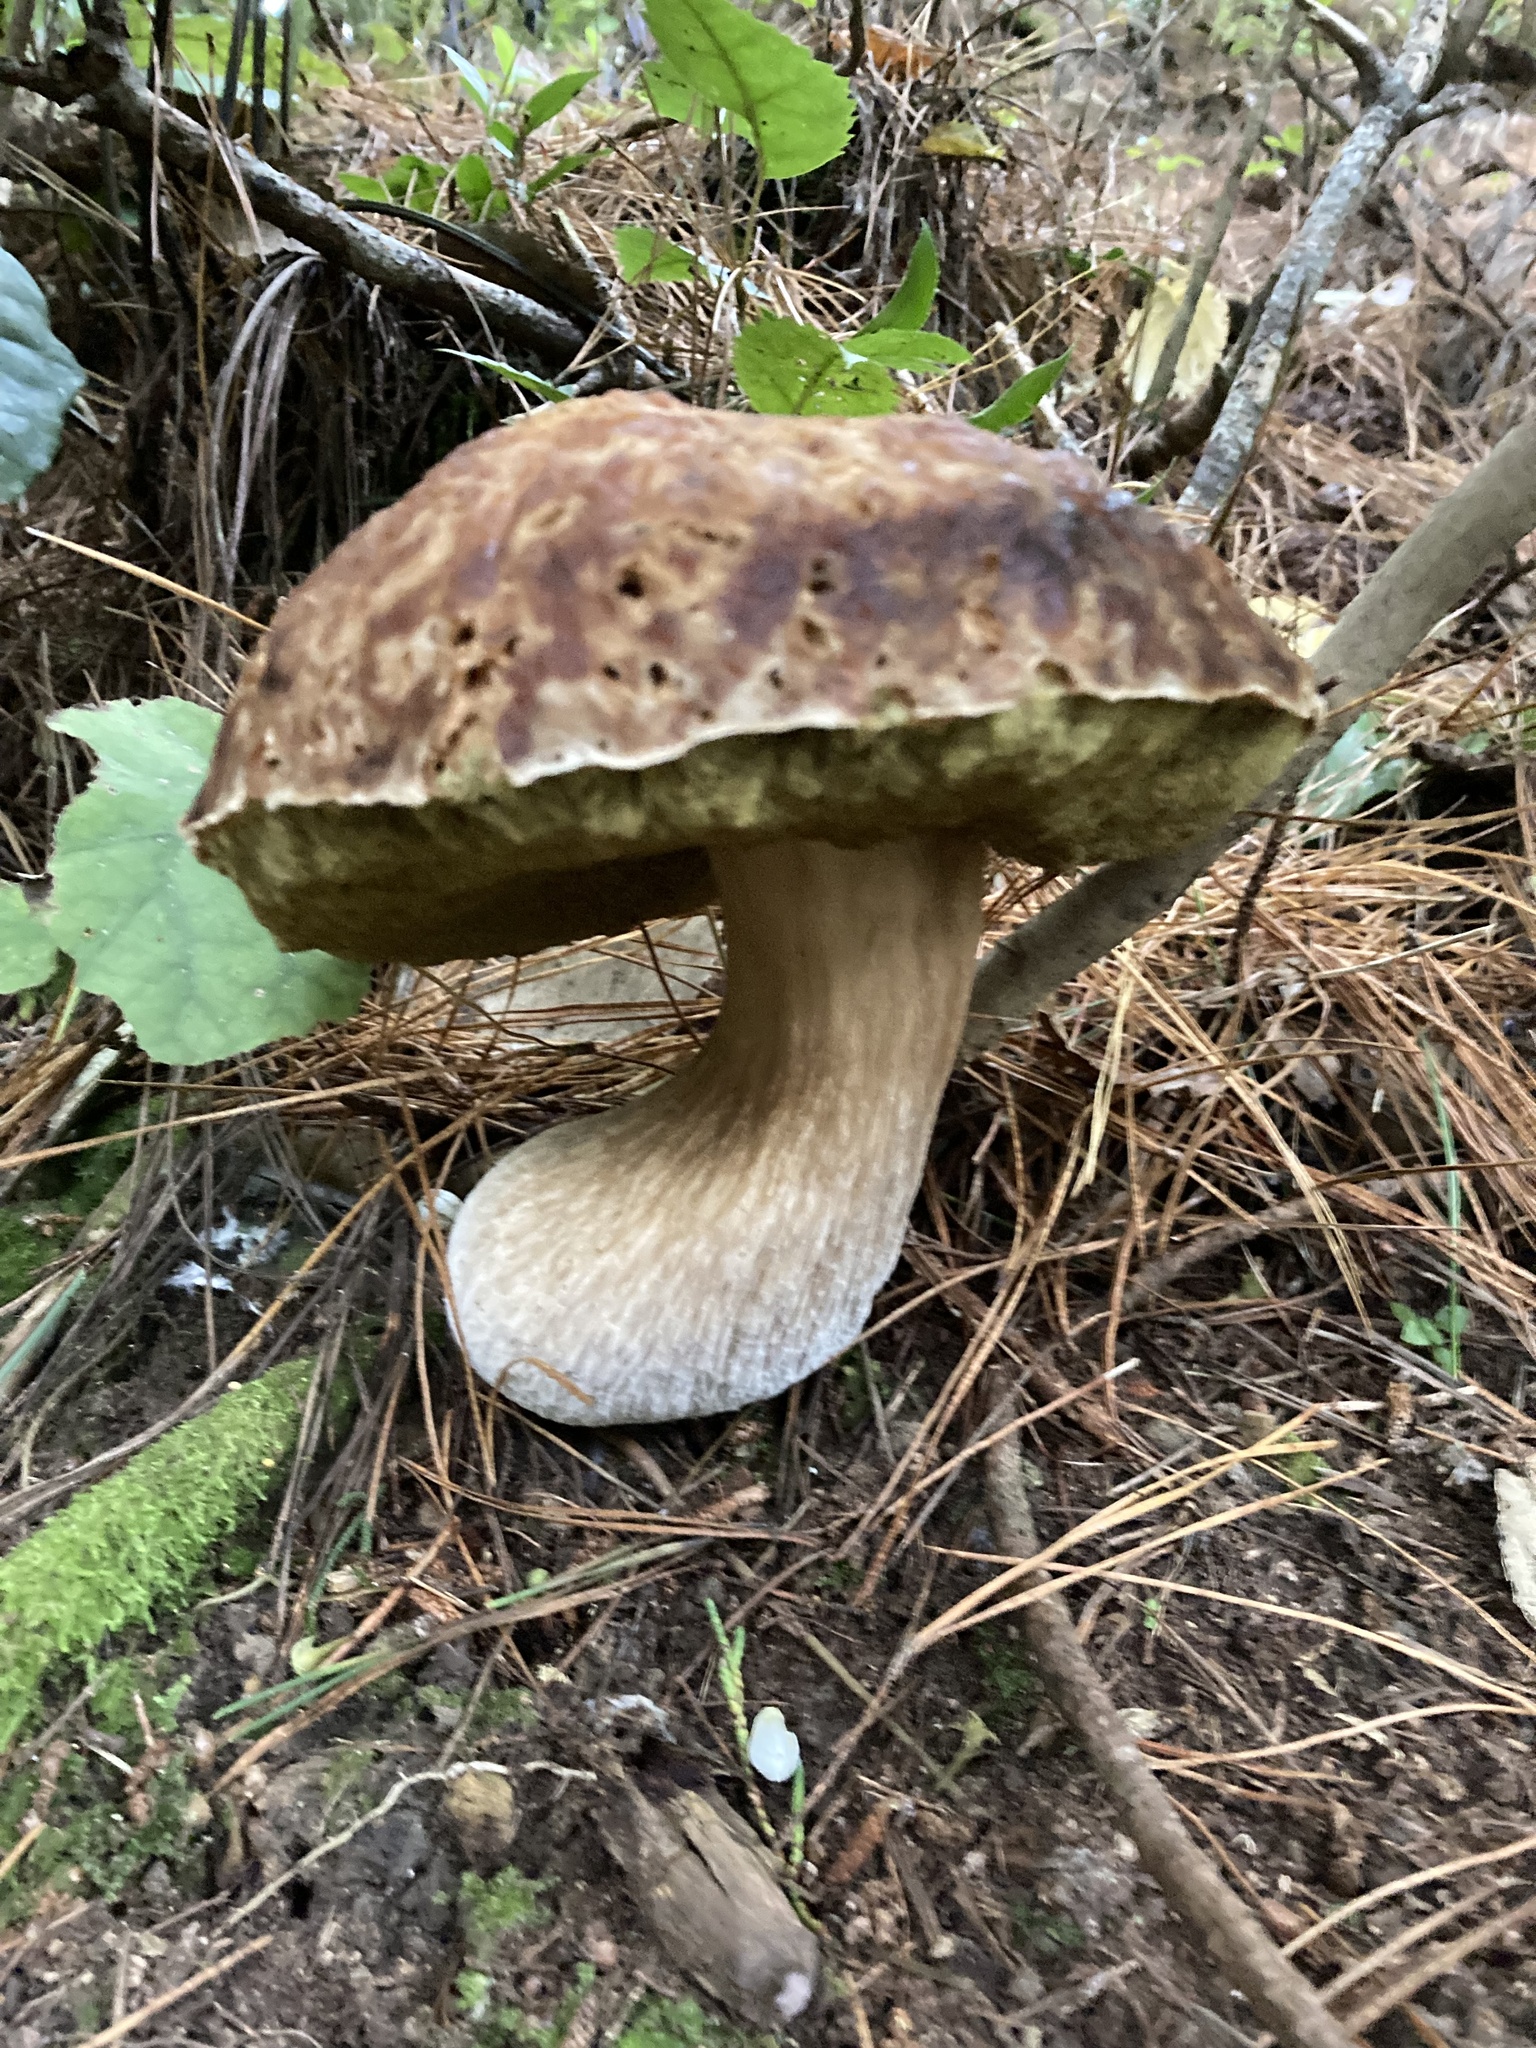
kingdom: Fungi
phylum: Basidiomycota
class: Agaricomycetes
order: Boletales
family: Boletaceae
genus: Boletus
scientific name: Boletus edulis
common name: Cep
